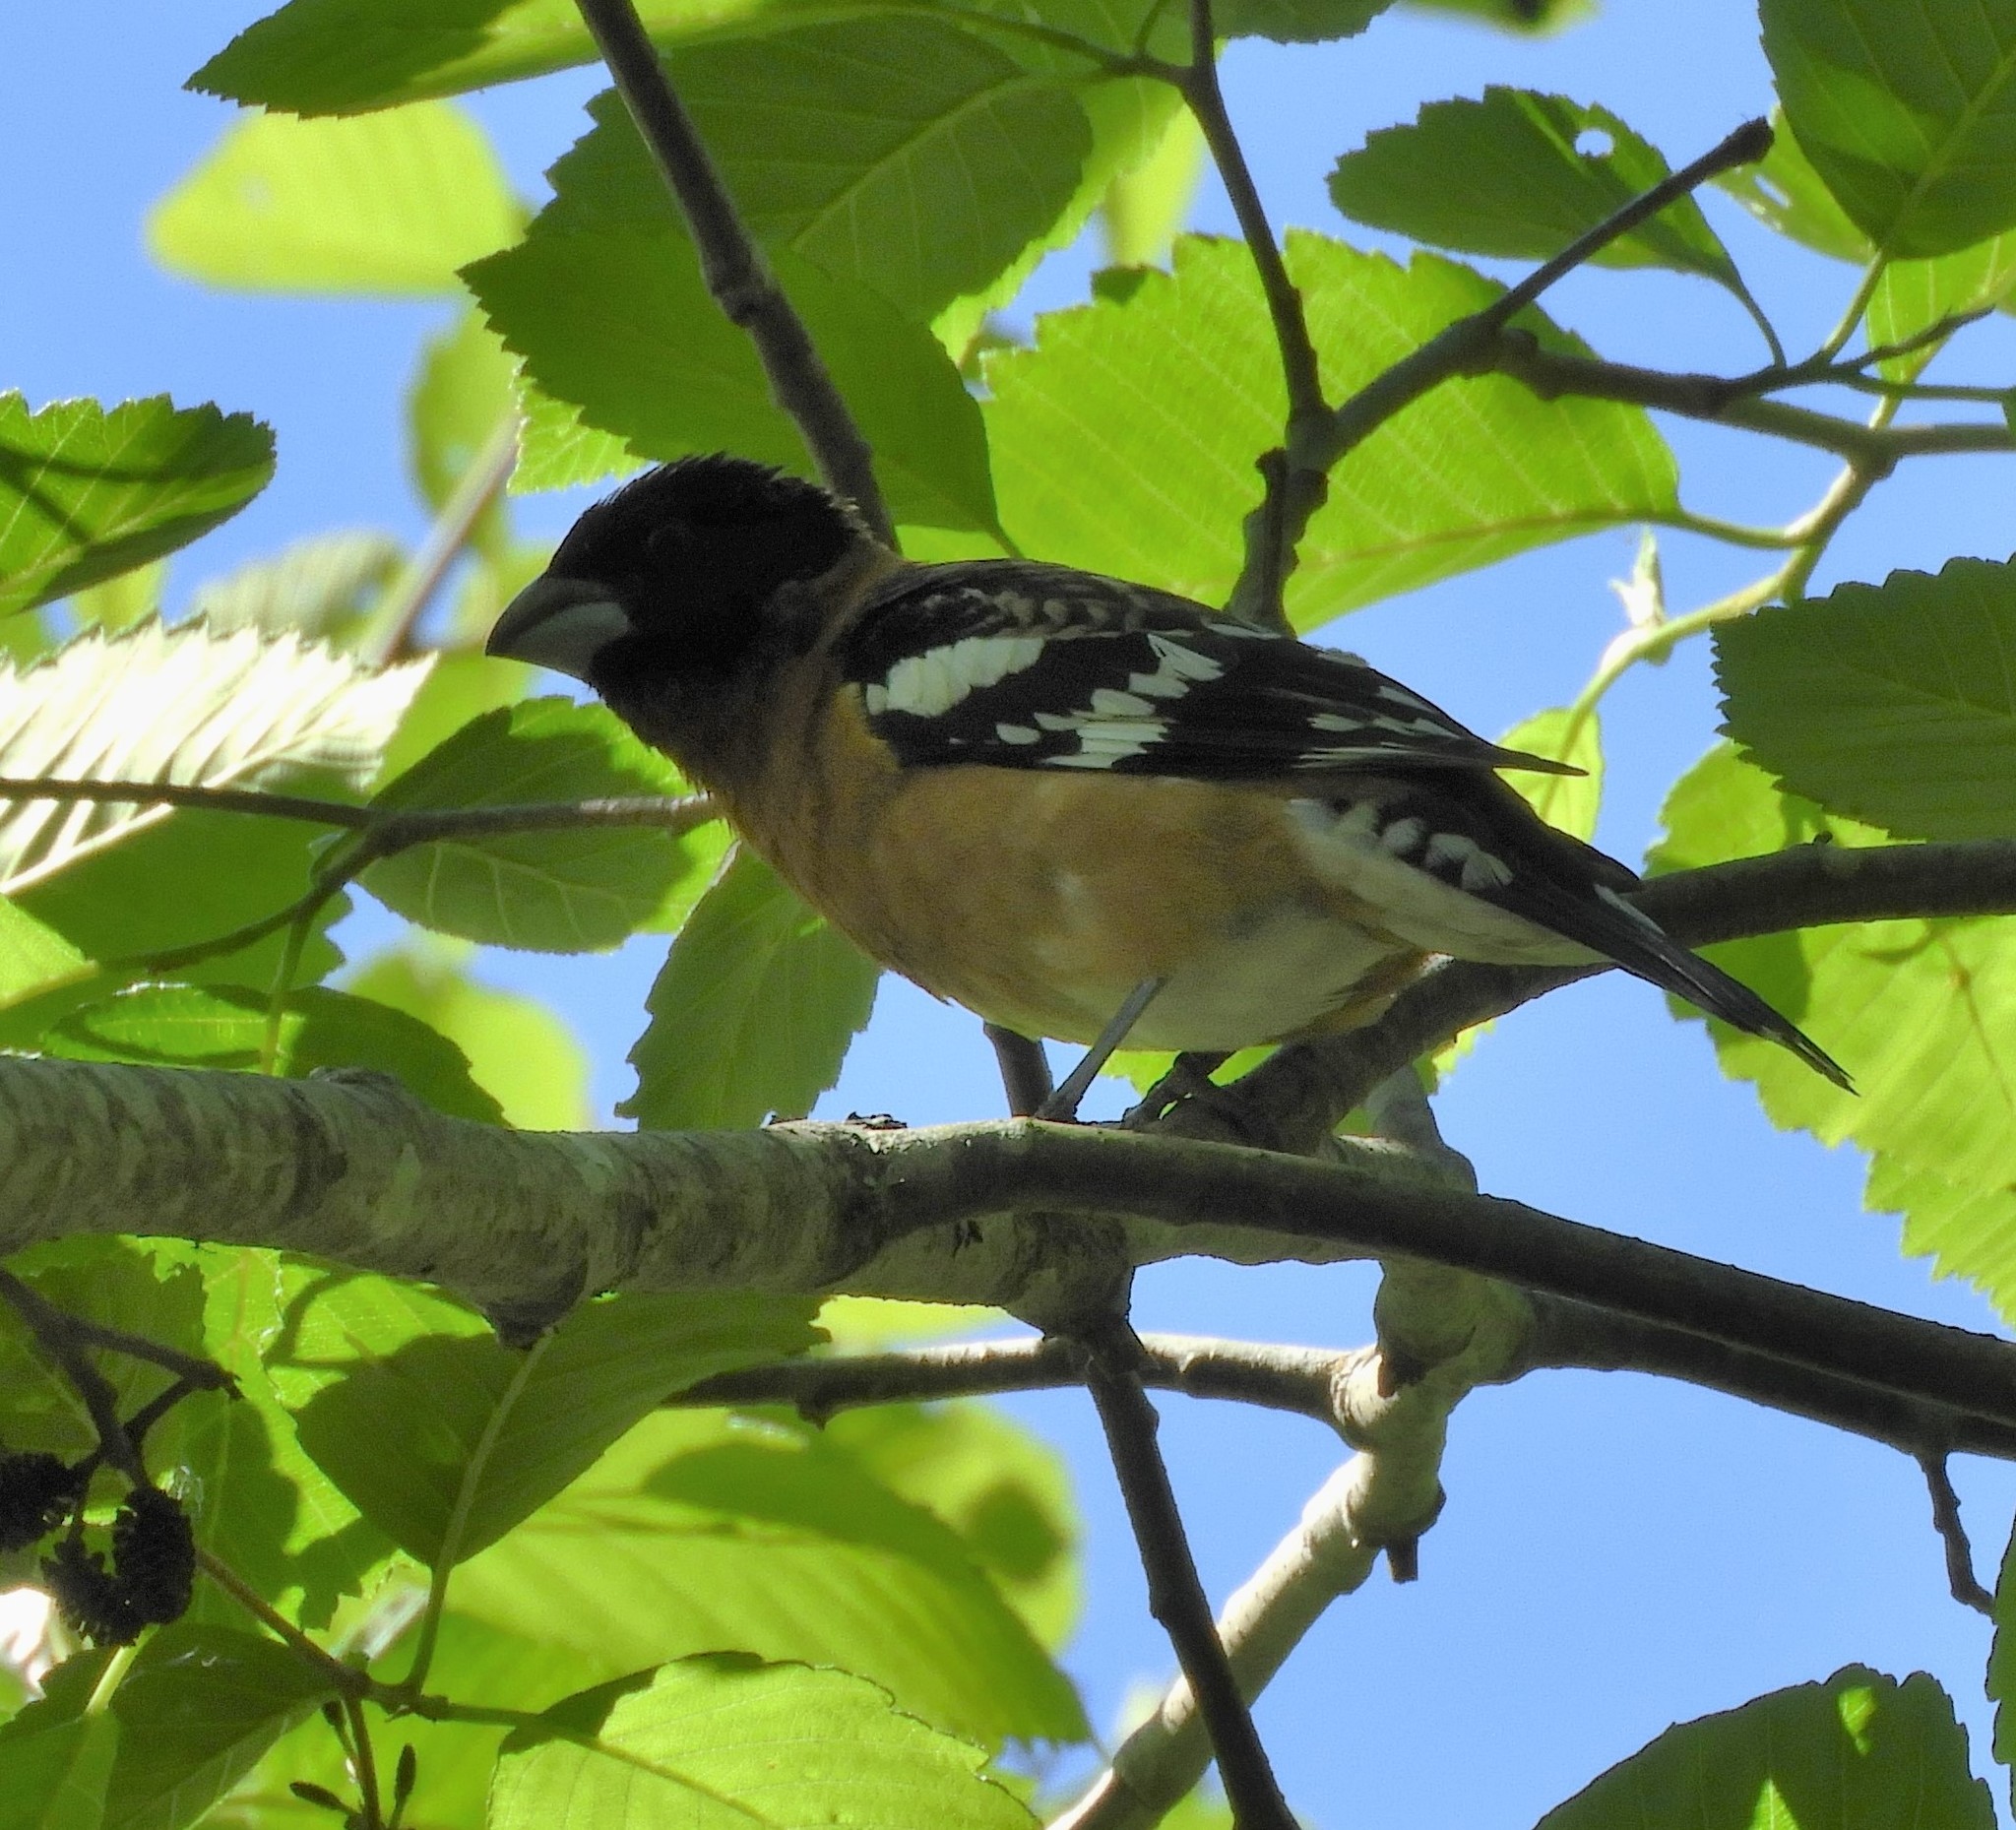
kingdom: Animalia
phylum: Chordata
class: Aves
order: Passeriformes
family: Cardinalidae
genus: Pheucticus
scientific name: Pheucticus melanocephalus
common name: Black-headed grosbeak
